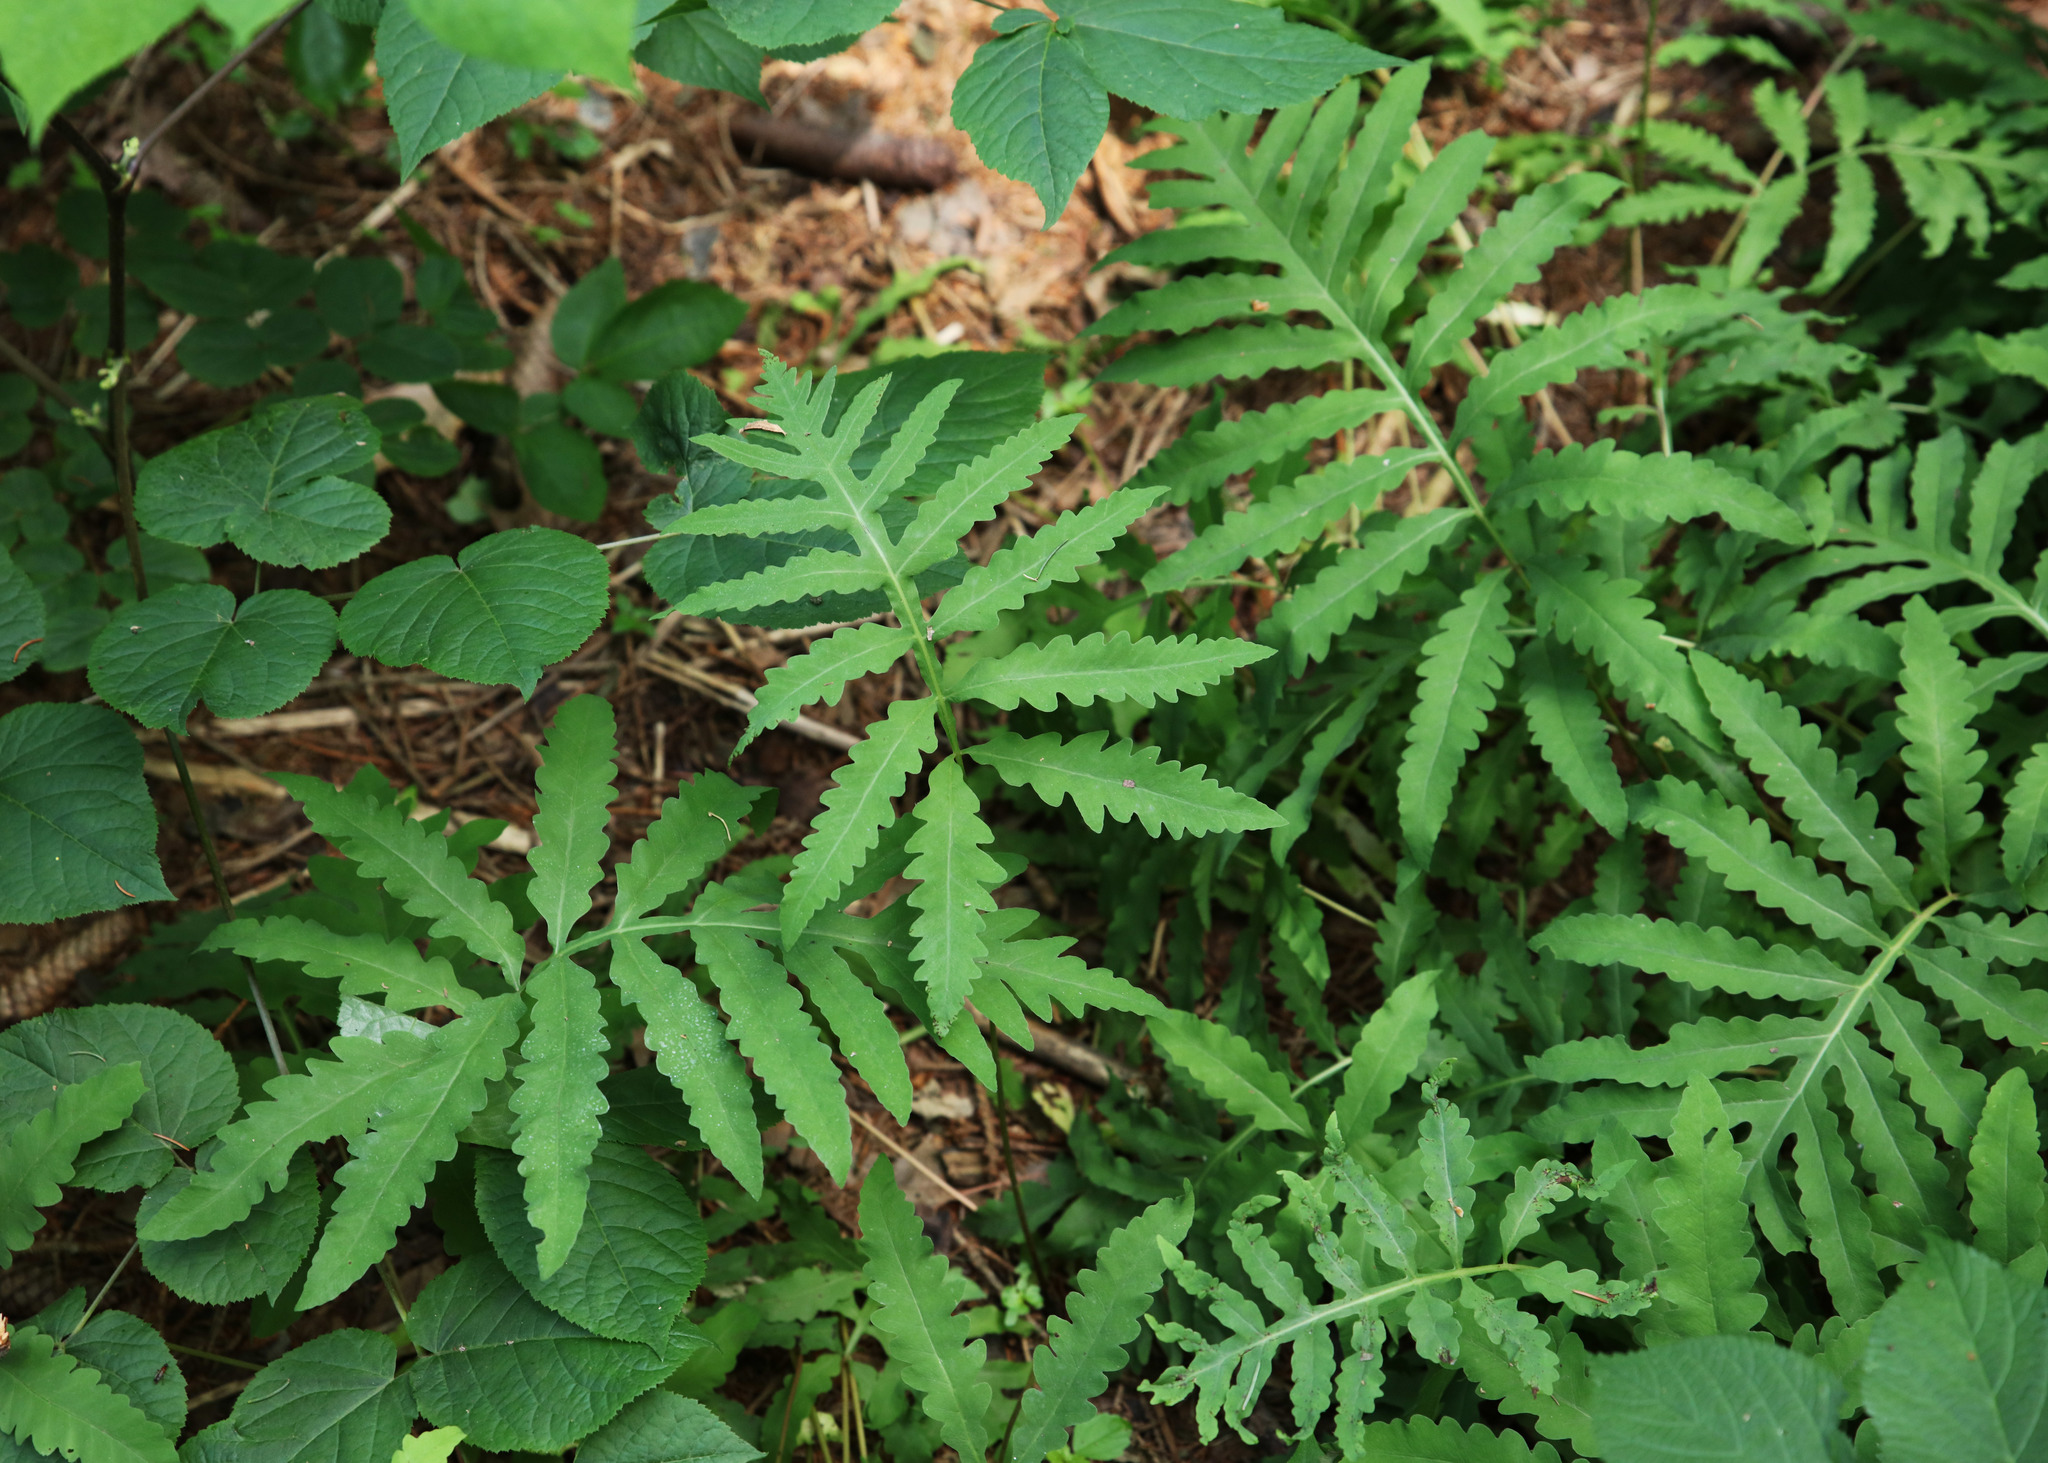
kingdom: Plantae
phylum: Tracheophyta
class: Polypodiopsida
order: Polypodiales
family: Onocleaceae
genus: Onoclea
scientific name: Onoclea sensibilis
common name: Sensitive fern
